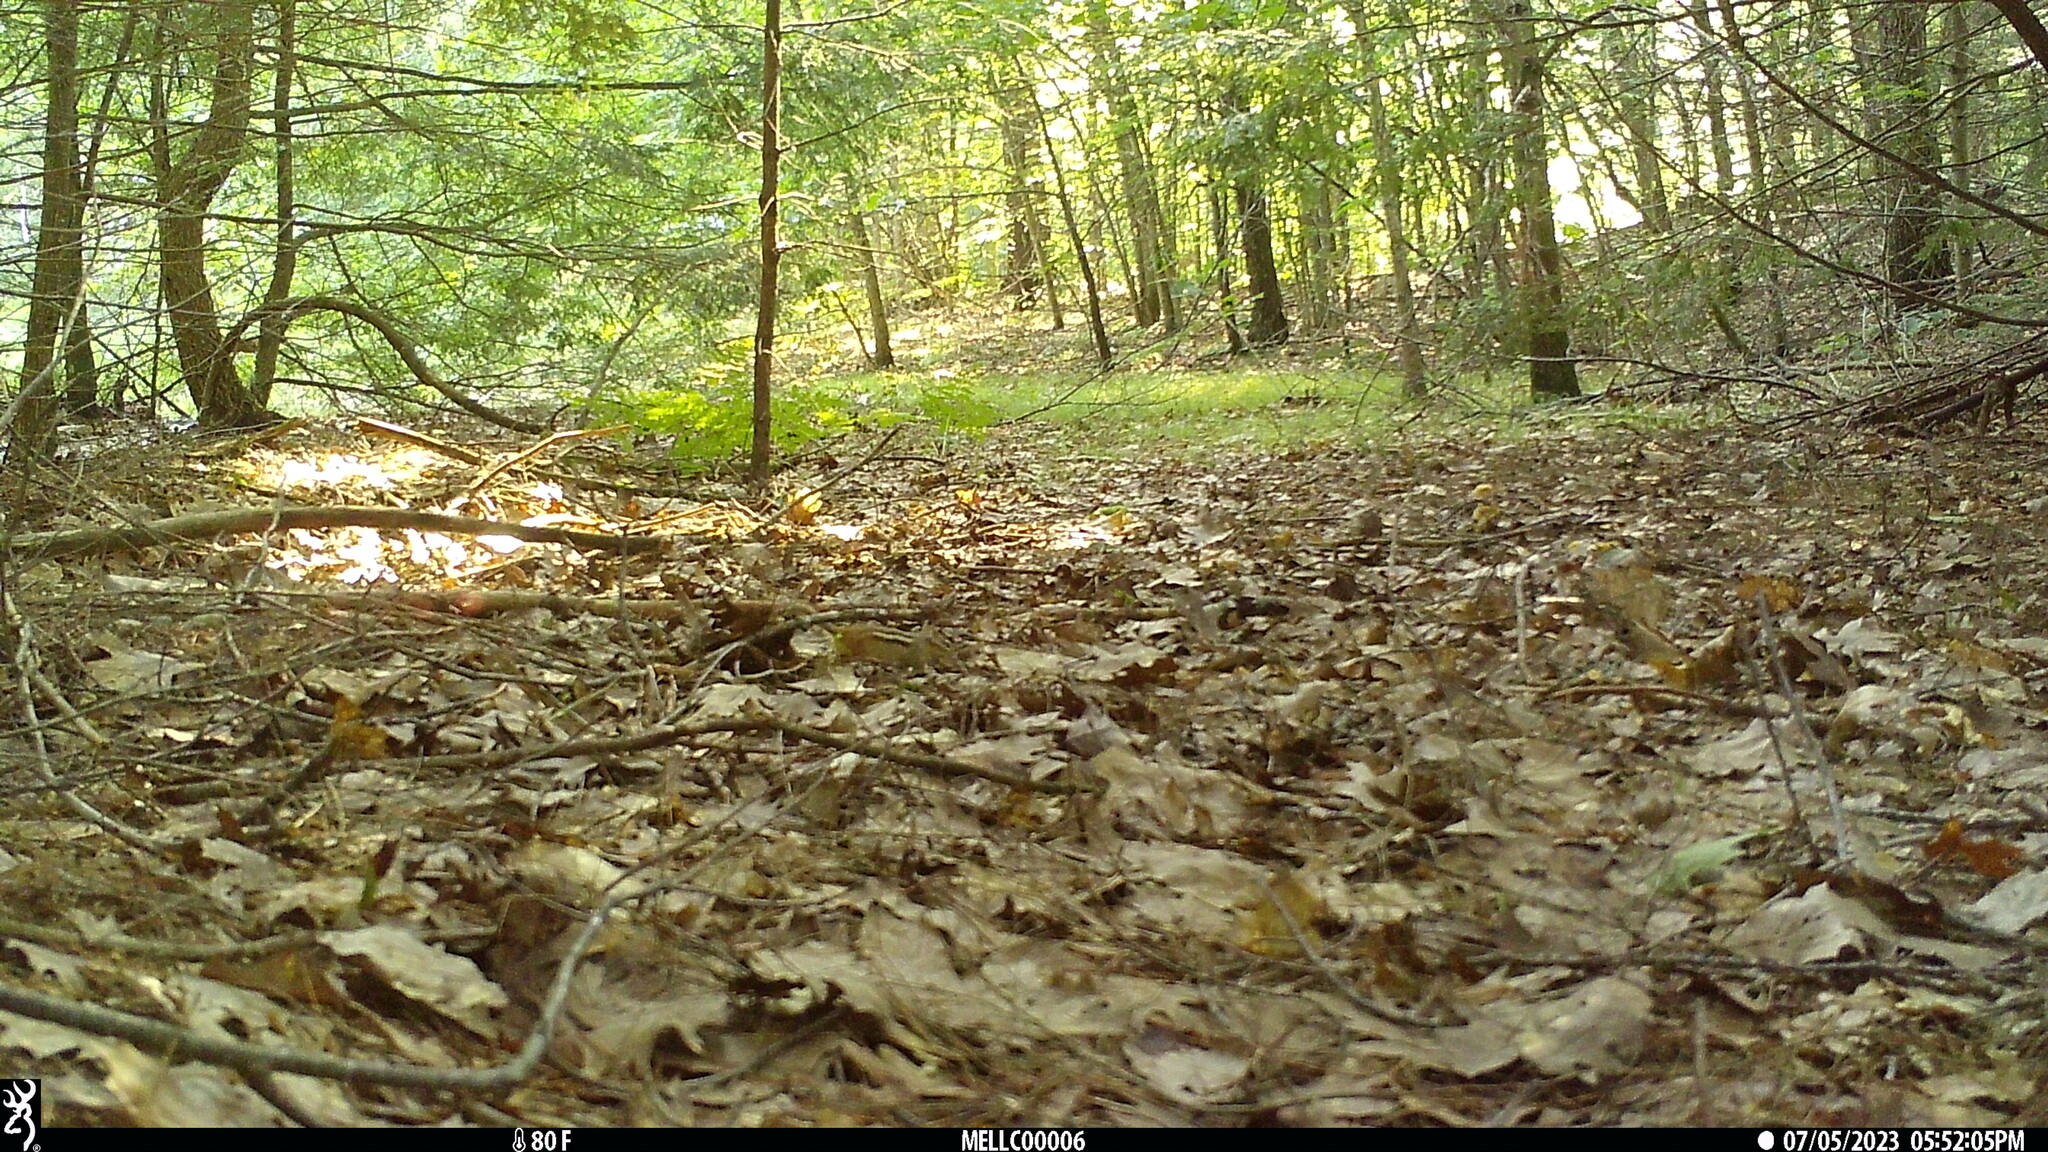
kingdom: Animalia
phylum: Chordata
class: Mammalia
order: Rodentia
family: Sciuridae
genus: Tamias
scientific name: Tamias striatus
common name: Eastern chipmunk
